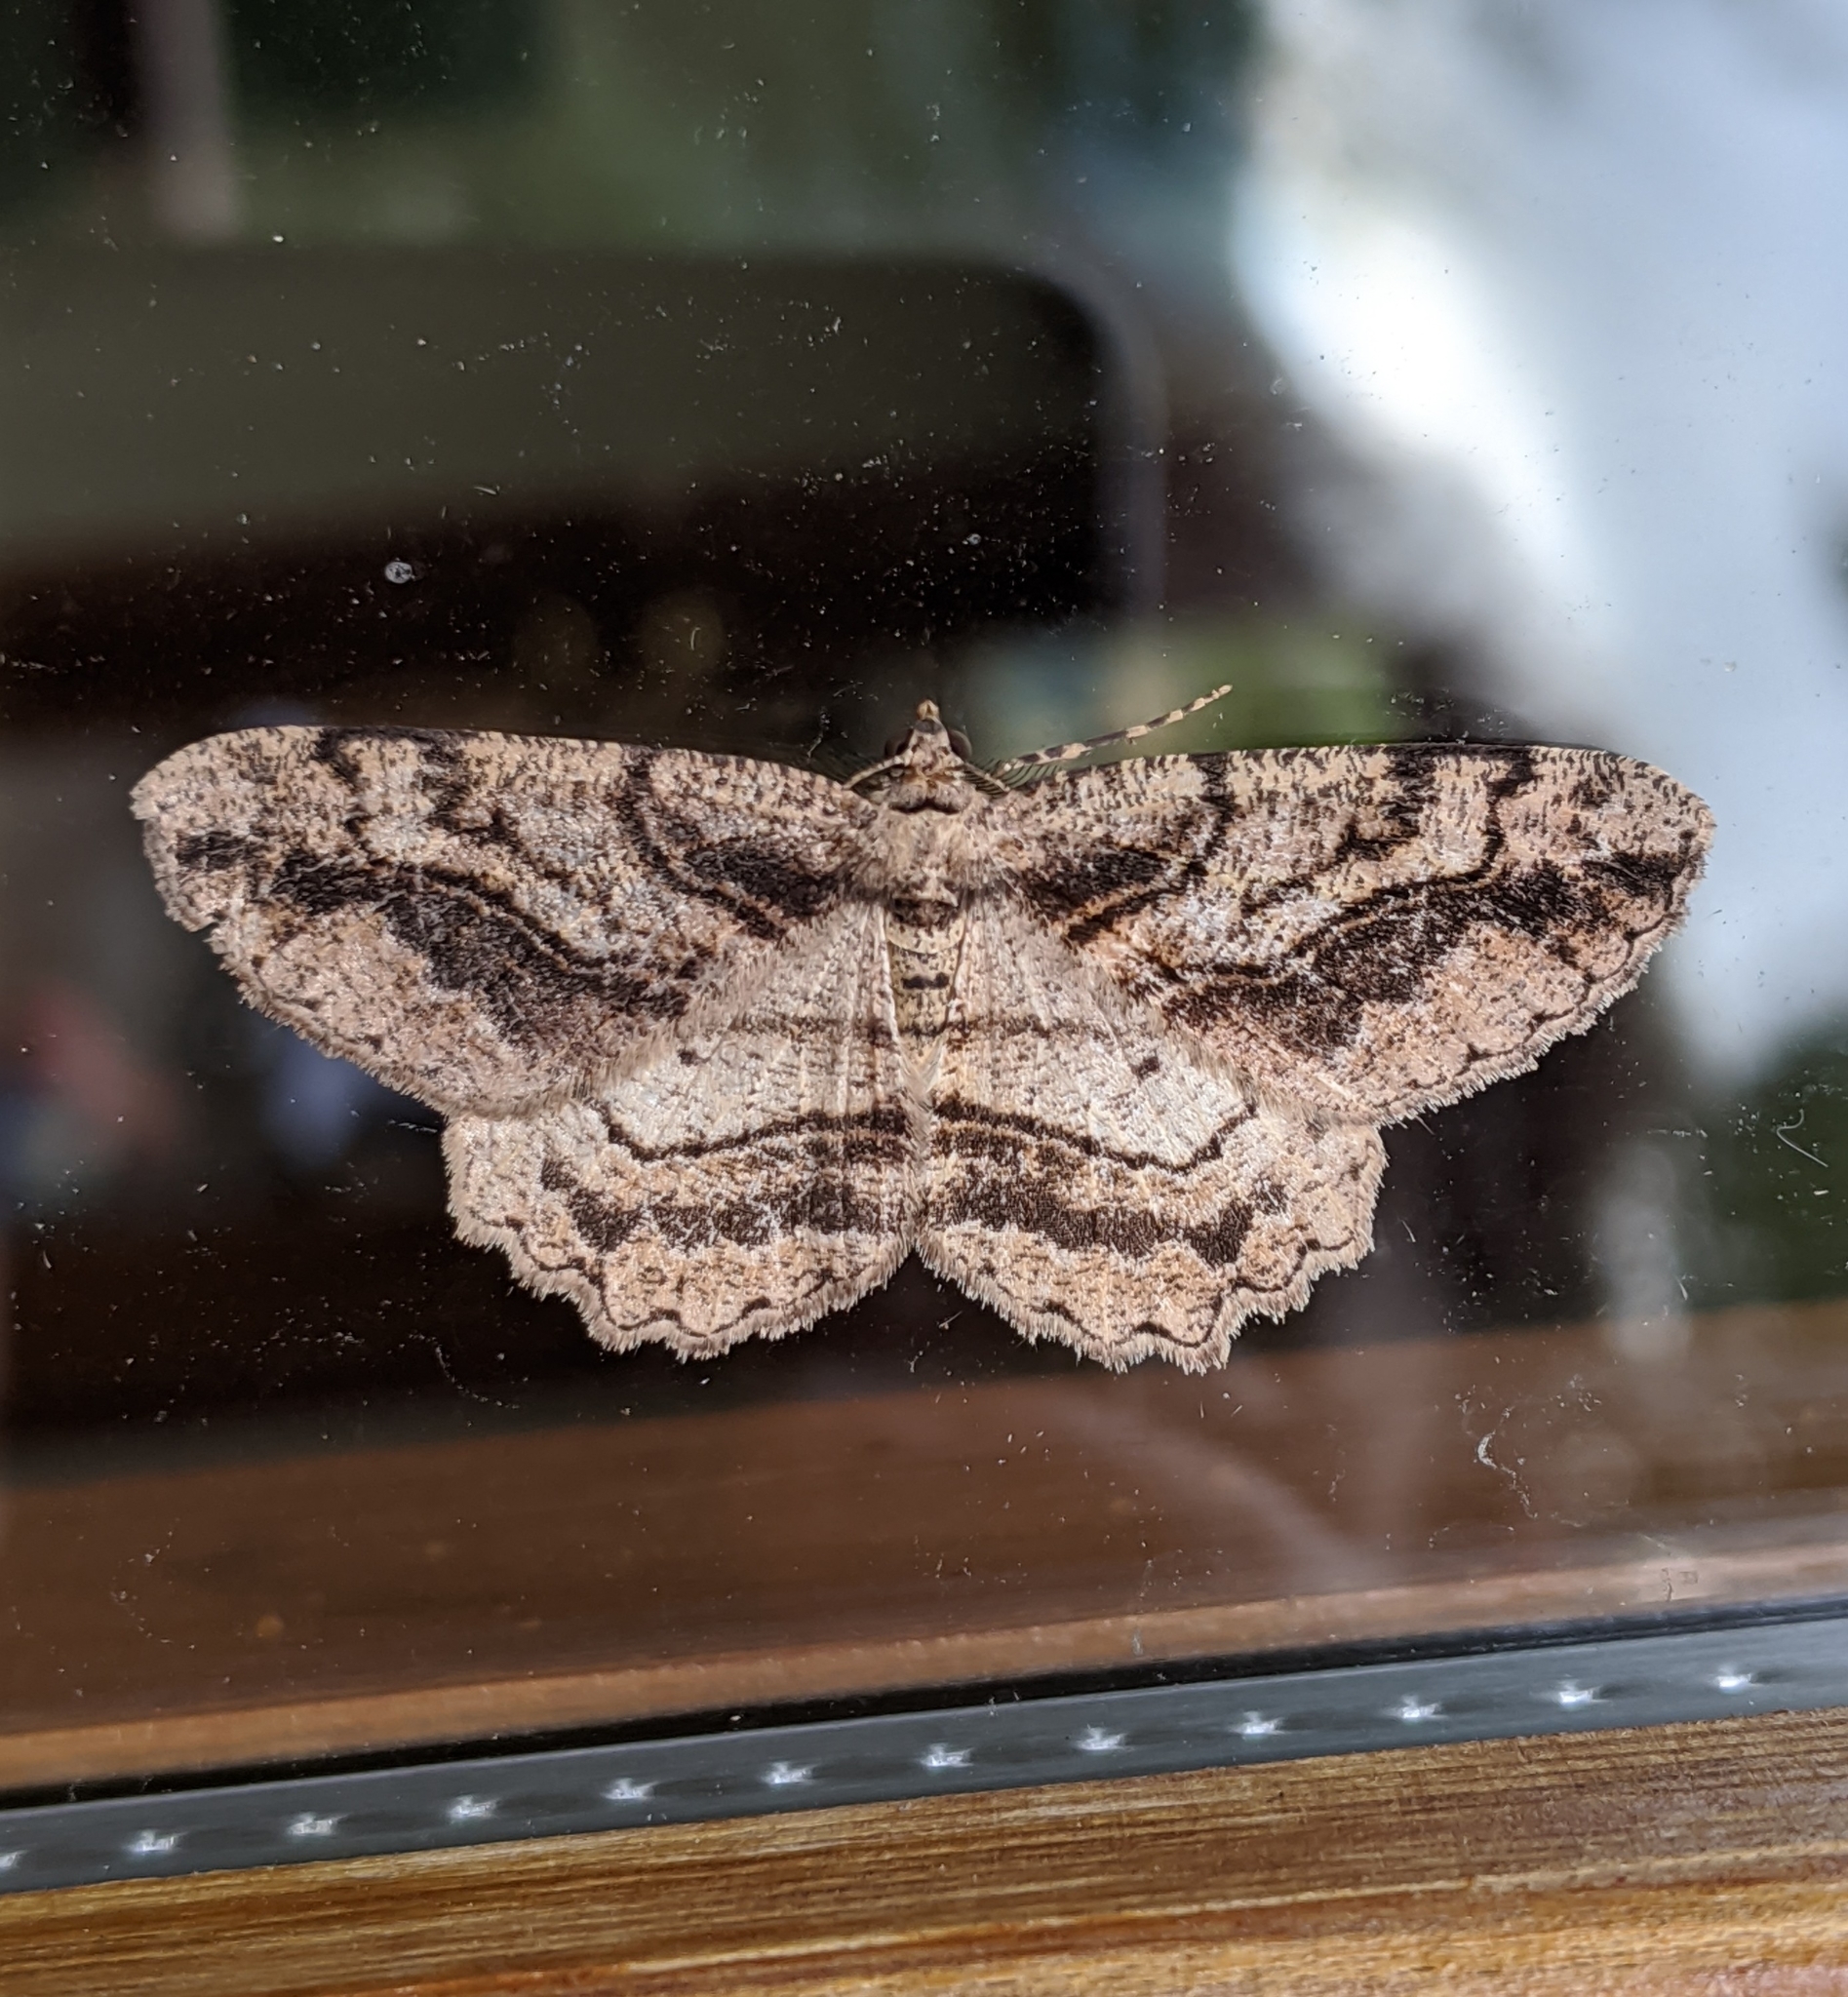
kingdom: Animalia
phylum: Arthropoda
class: Insecta
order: Lepidoptera
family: Geometridae
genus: Neoalcis
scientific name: Neoalcis californiaria
